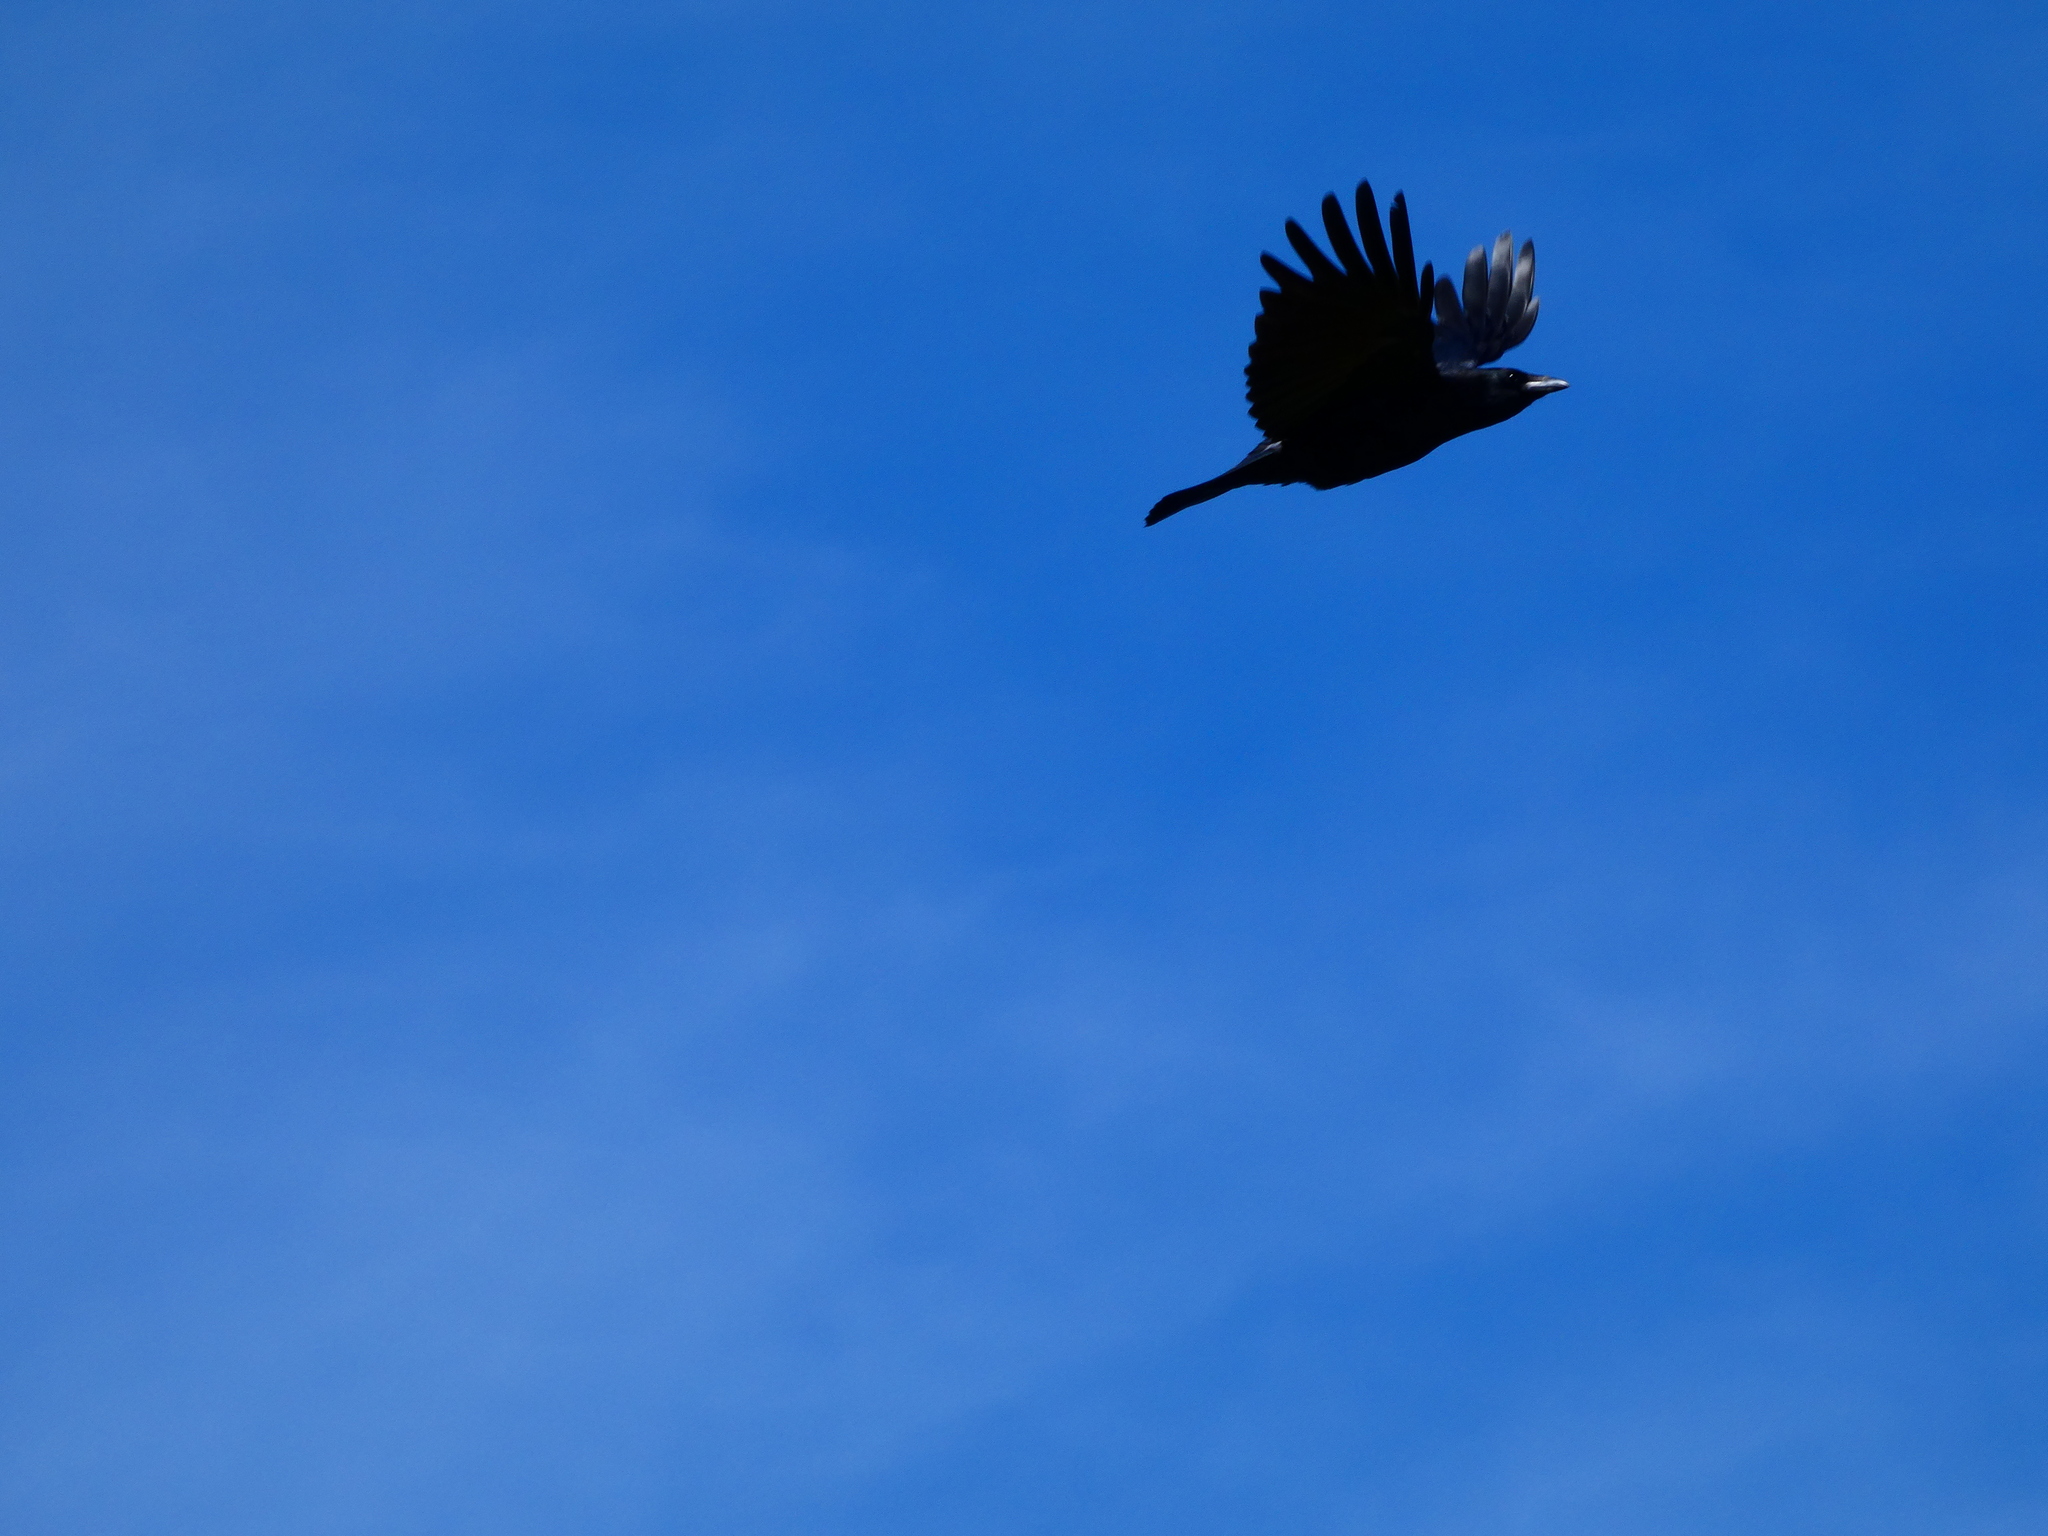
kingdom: Animalia
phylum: Chordata
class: Aves
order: Passeriformes
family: Corvidae
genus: Corvus
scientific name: Corvus corone
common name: Carrion crow
